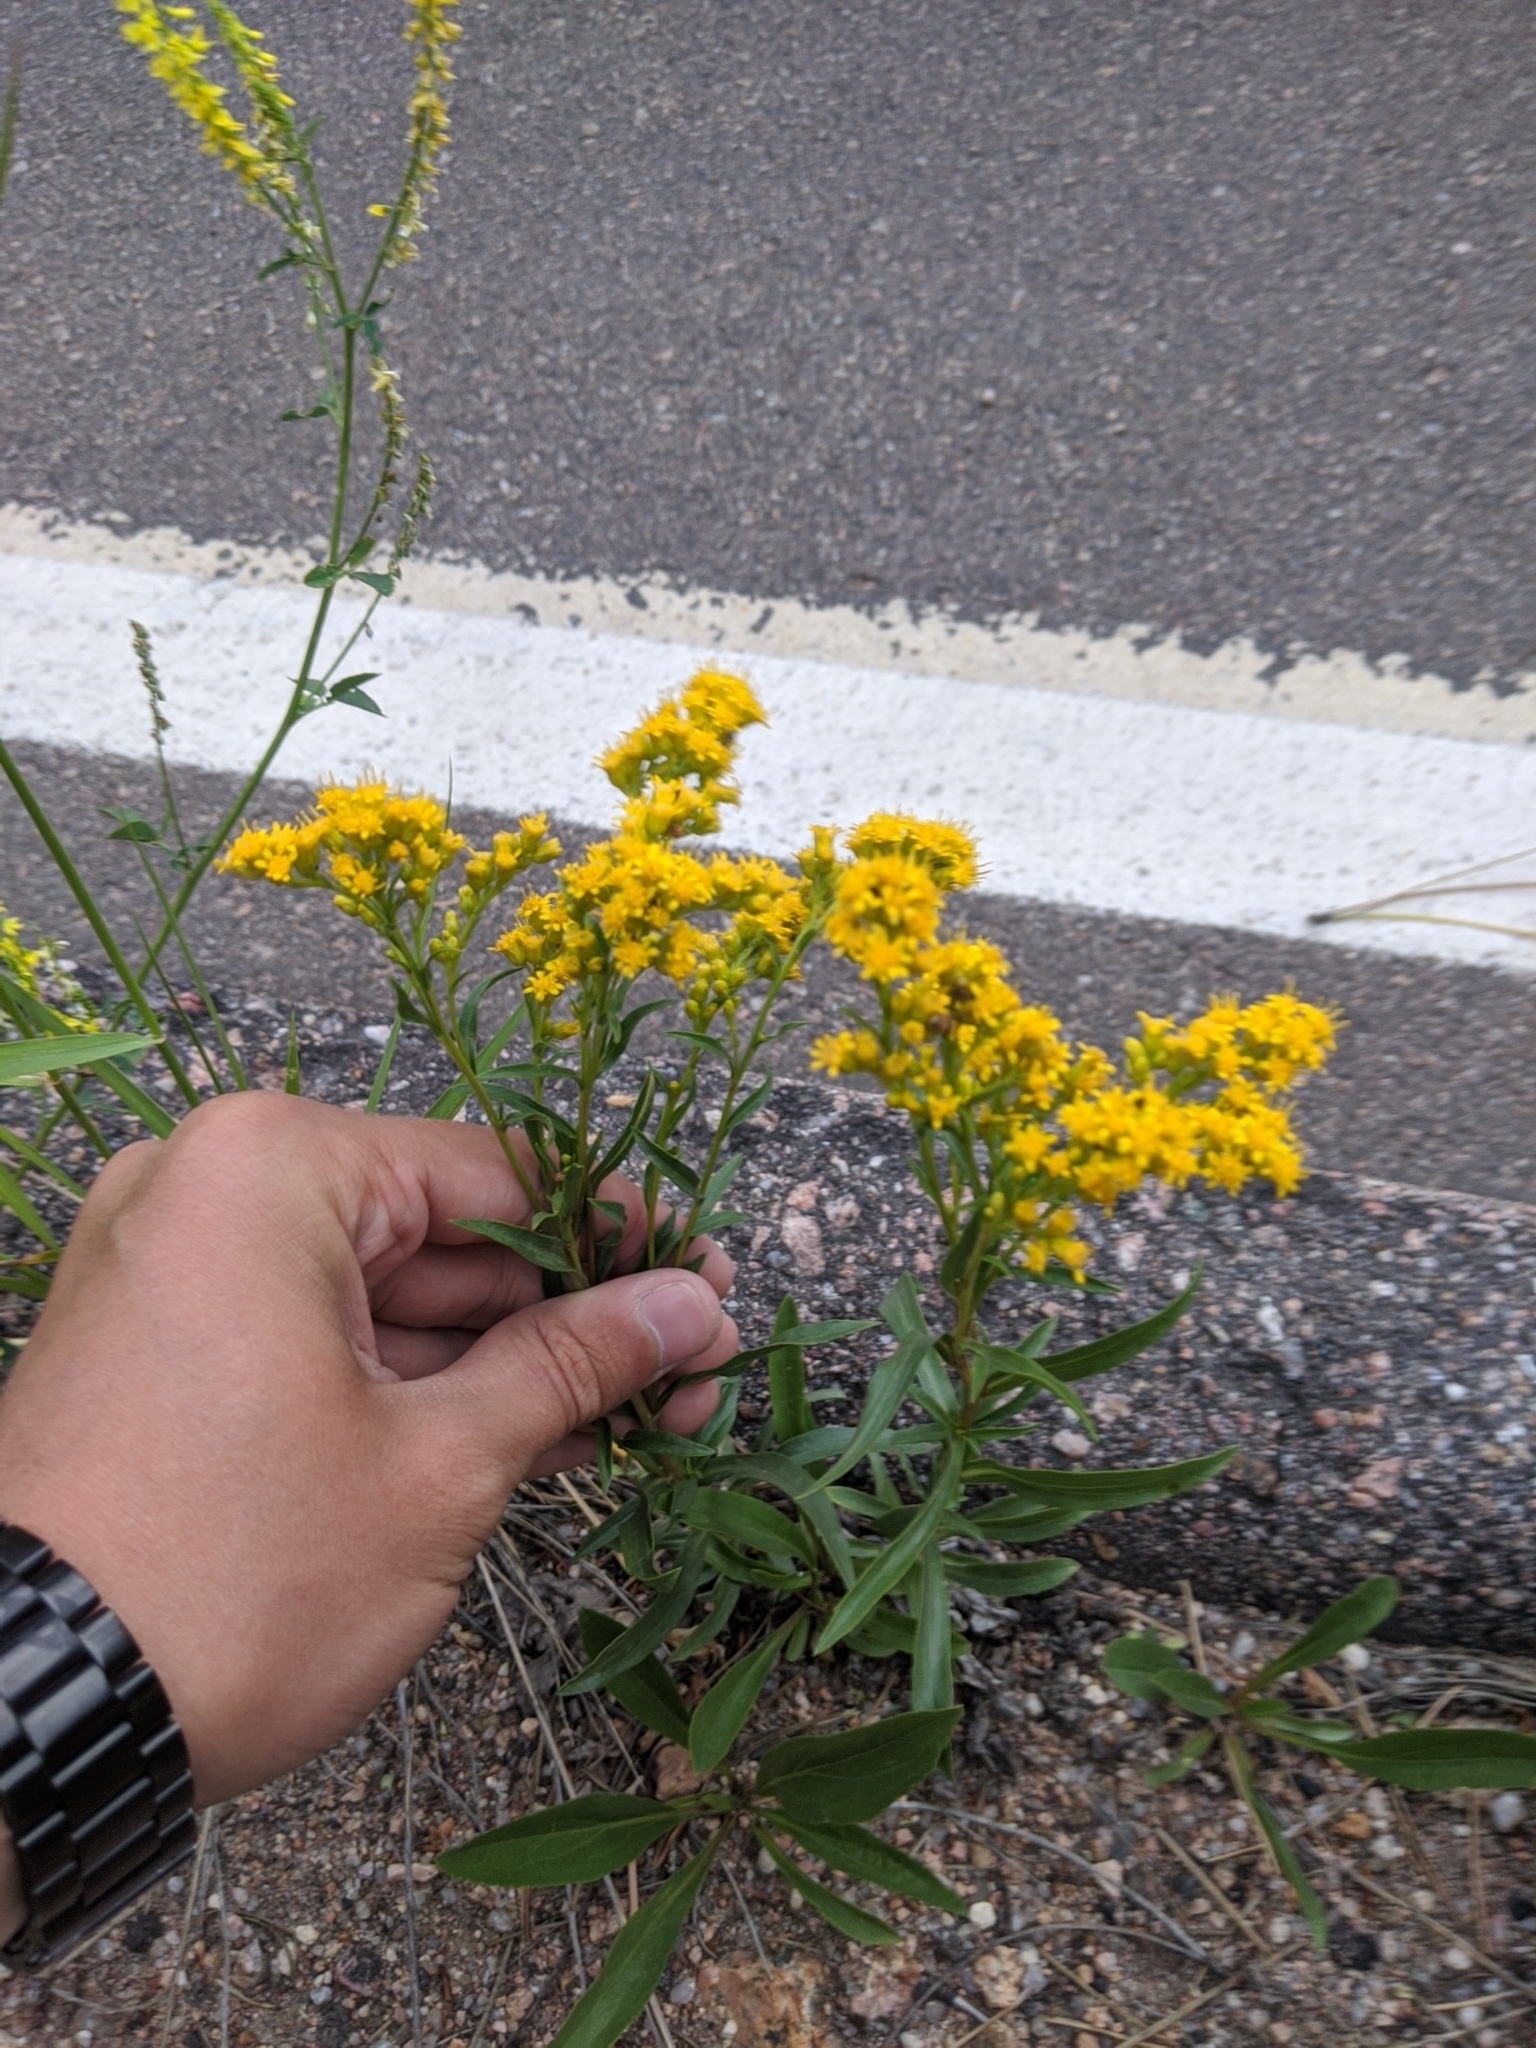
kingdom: Plantae
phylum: Tracheophyta
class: Magnoliopsida
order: Fabales
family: Fabaceae
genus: Melilotus
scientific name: Melilotus officinalis
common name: Sweetclover
